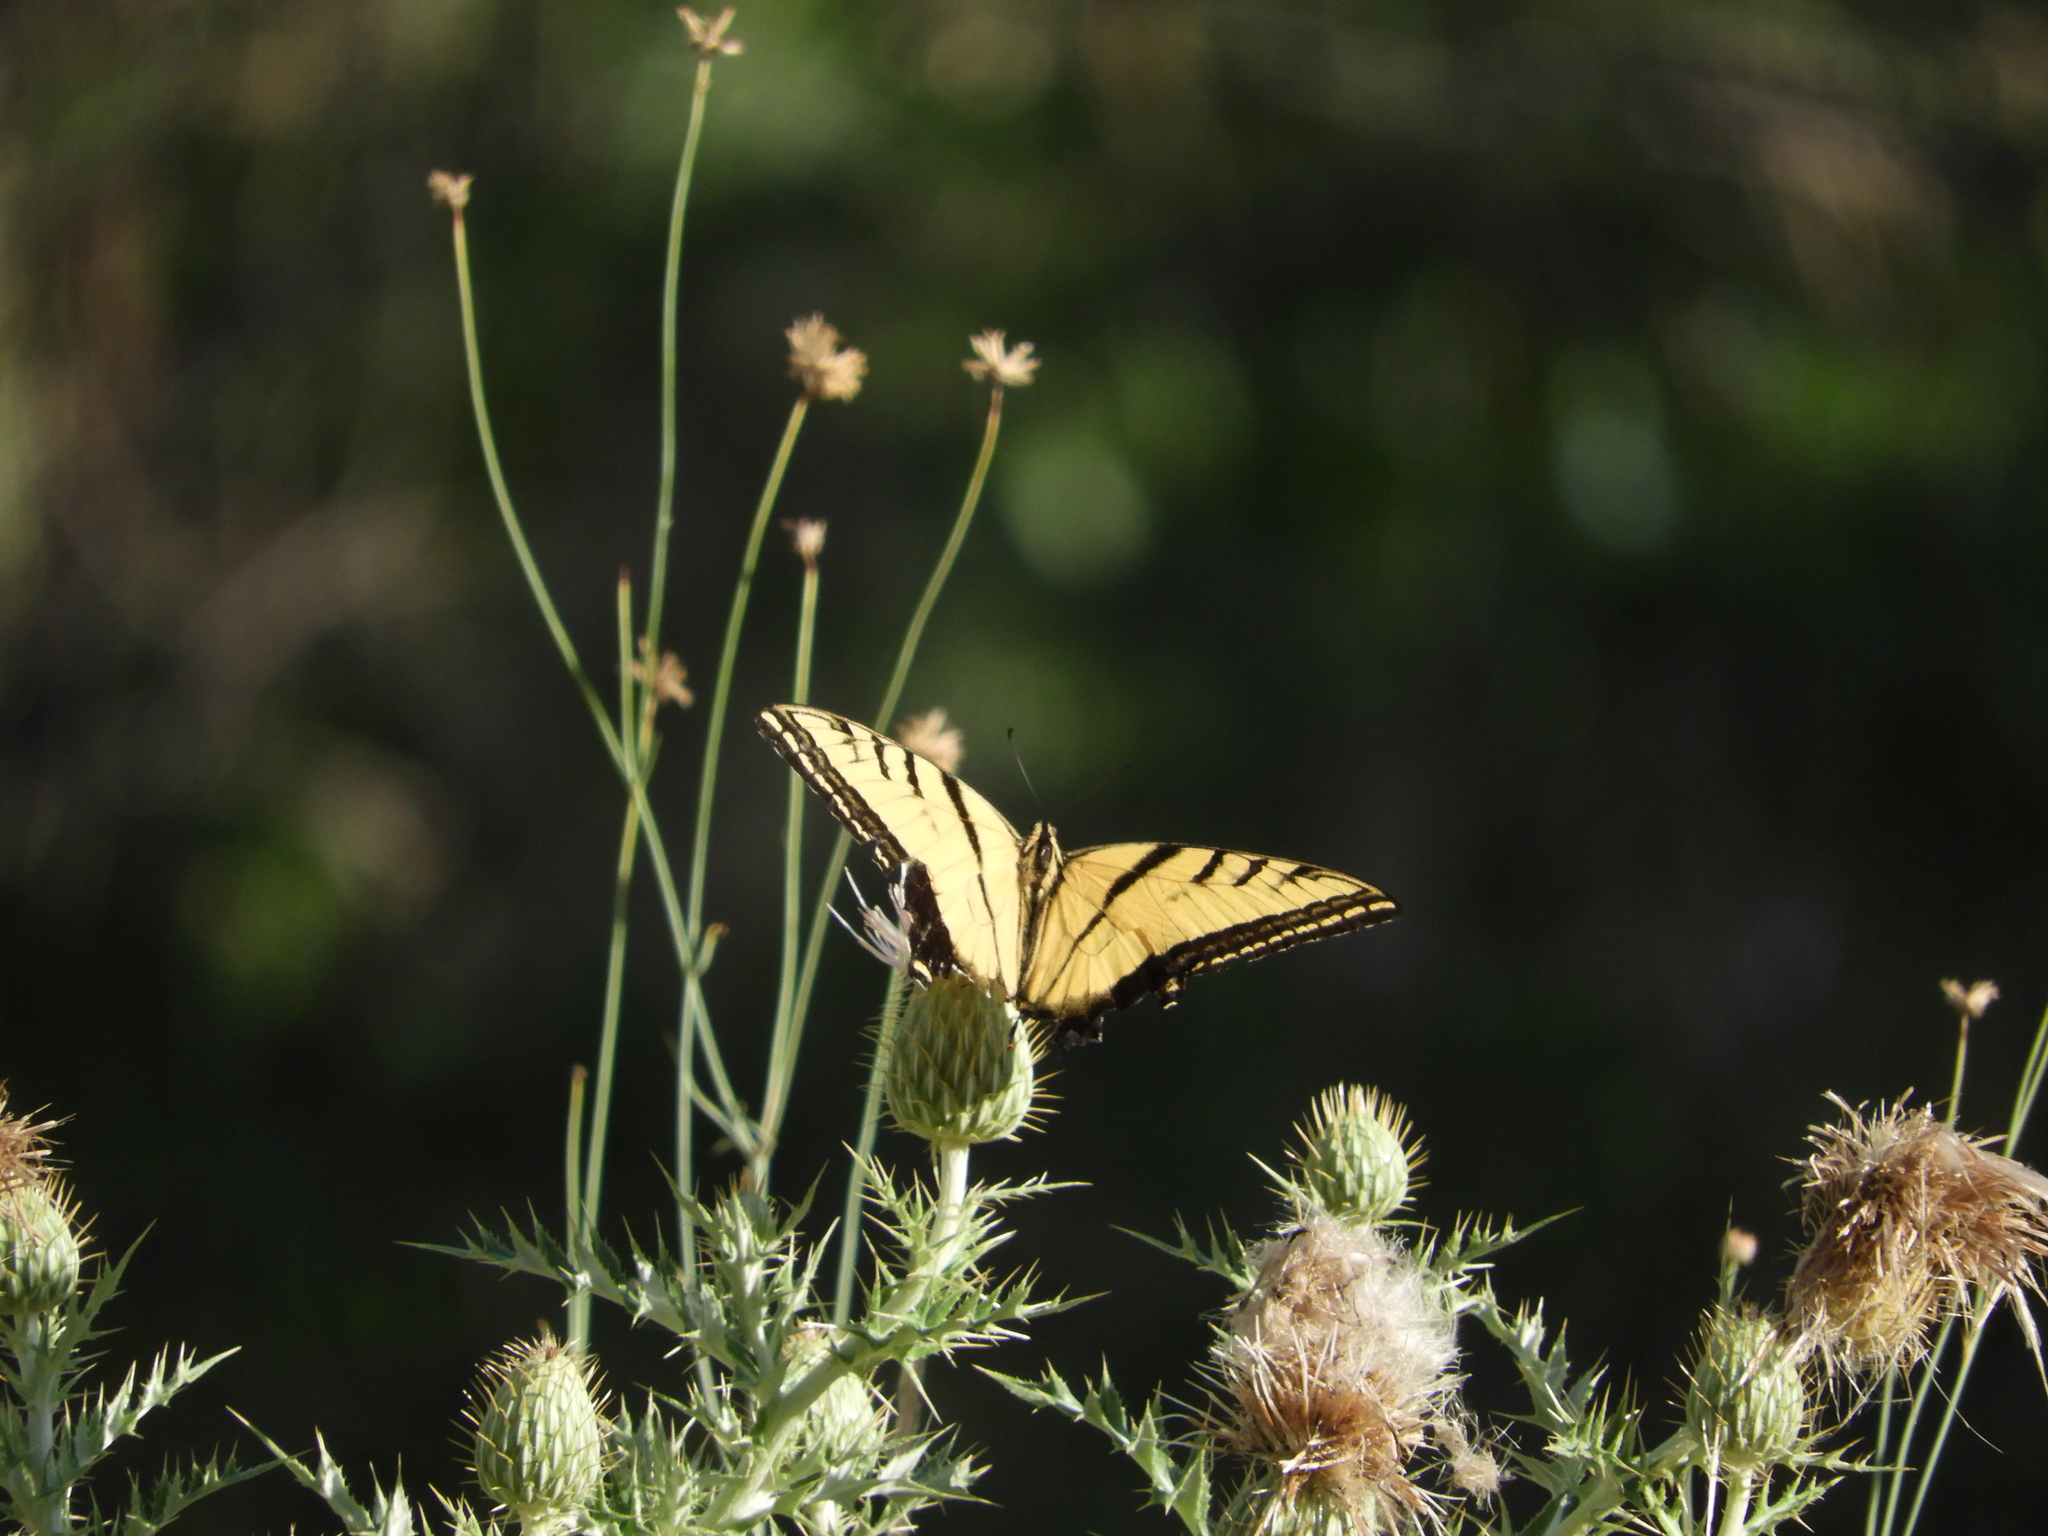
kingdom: Animalia
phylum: Arthropoda
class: Insecta
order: Lepidoptera
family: Papilionidae
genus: Papilio
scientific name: Papilio multicaudata
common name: Two-tailed tiger swallowtail
